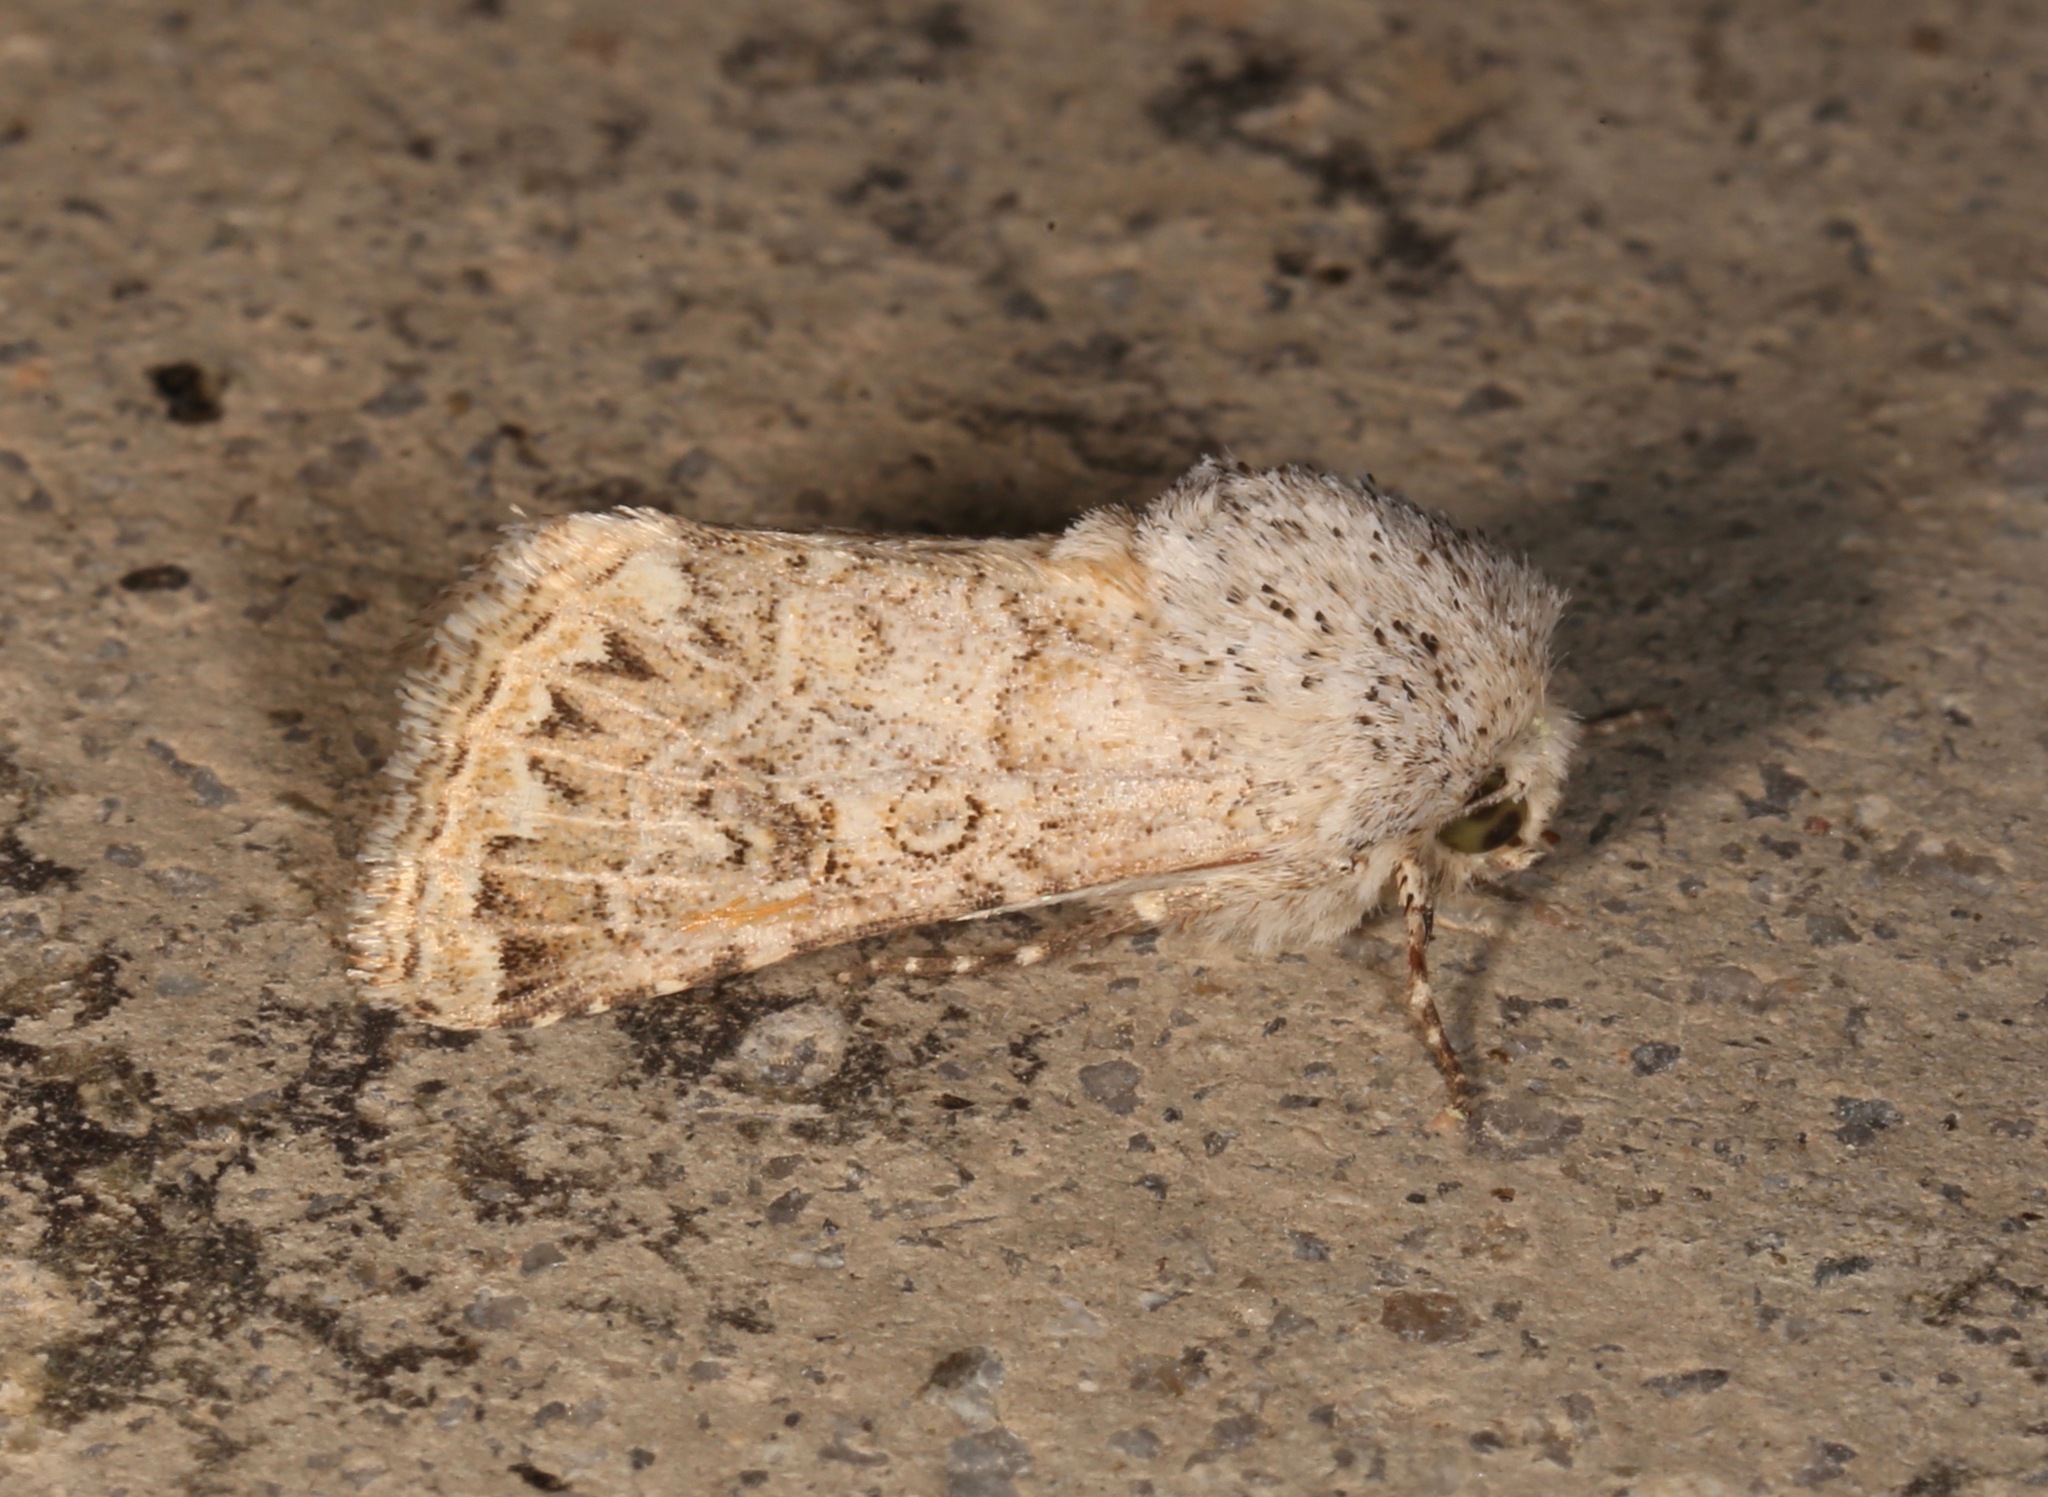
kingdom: Animalia
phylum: Arthropoda
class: Insecta
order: Lepidoptera
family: Noctuidae
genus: Schinia
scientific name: Schinia deserticola
